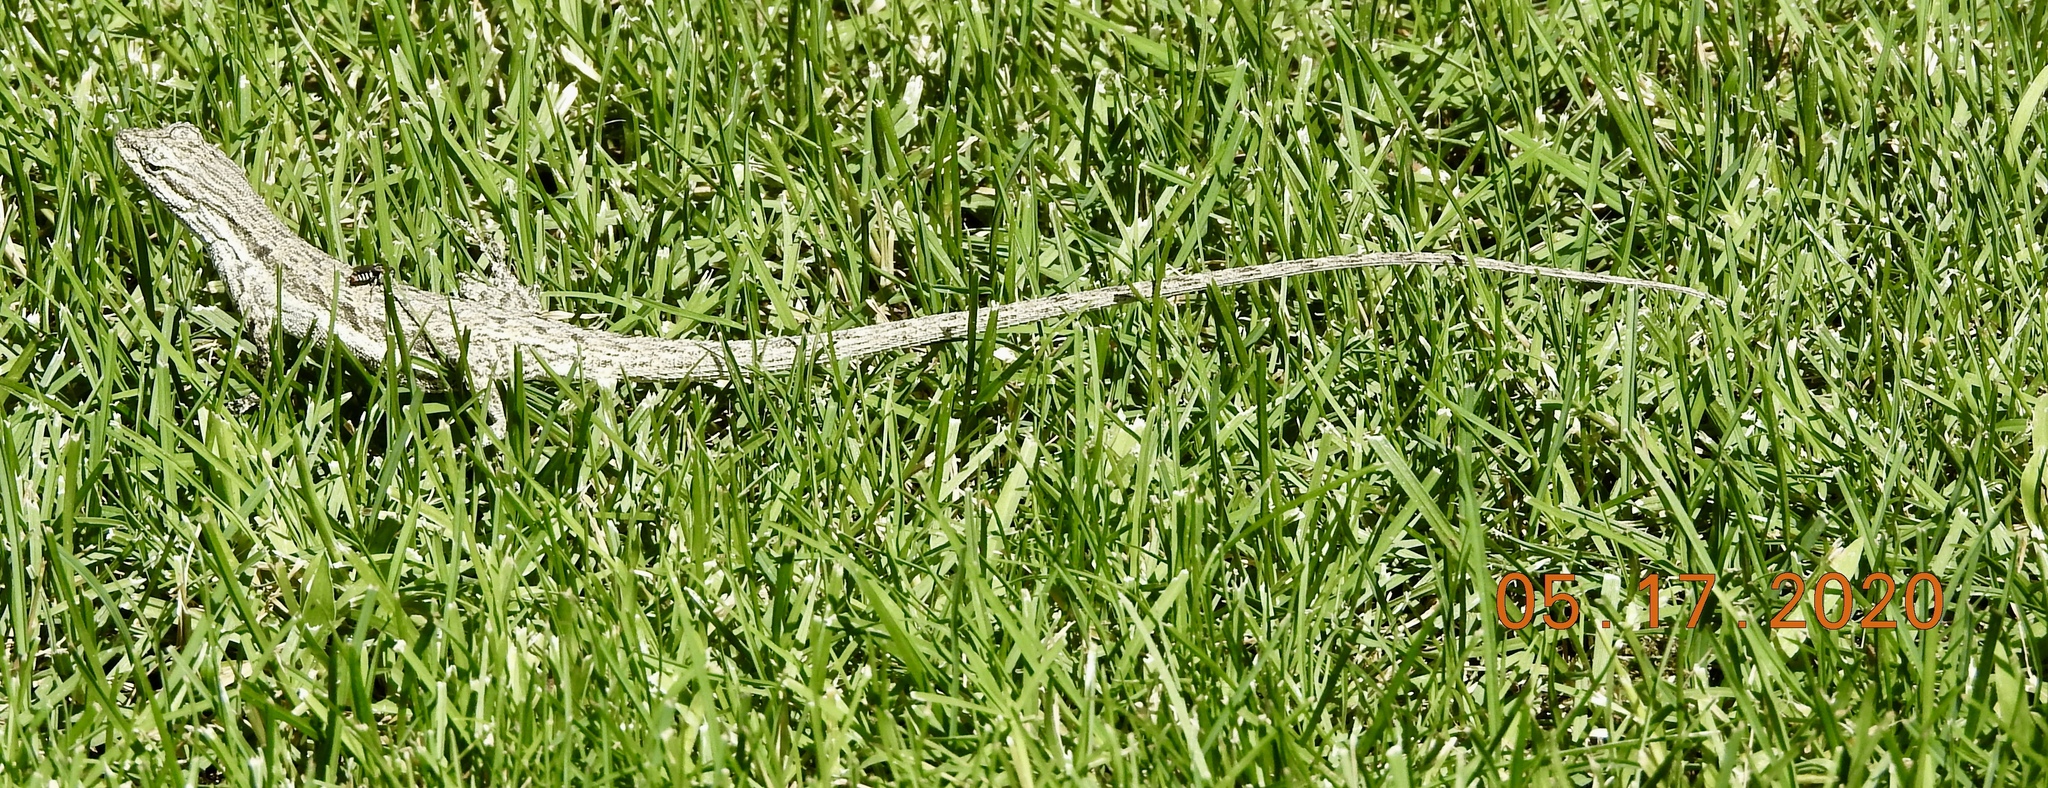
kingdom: Animalia
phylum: Chordata
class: Squamata
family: Phrynosomatidae
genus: Urosaurus
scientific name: Urosaurus graciosus
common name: Long-tailed brush lizard
